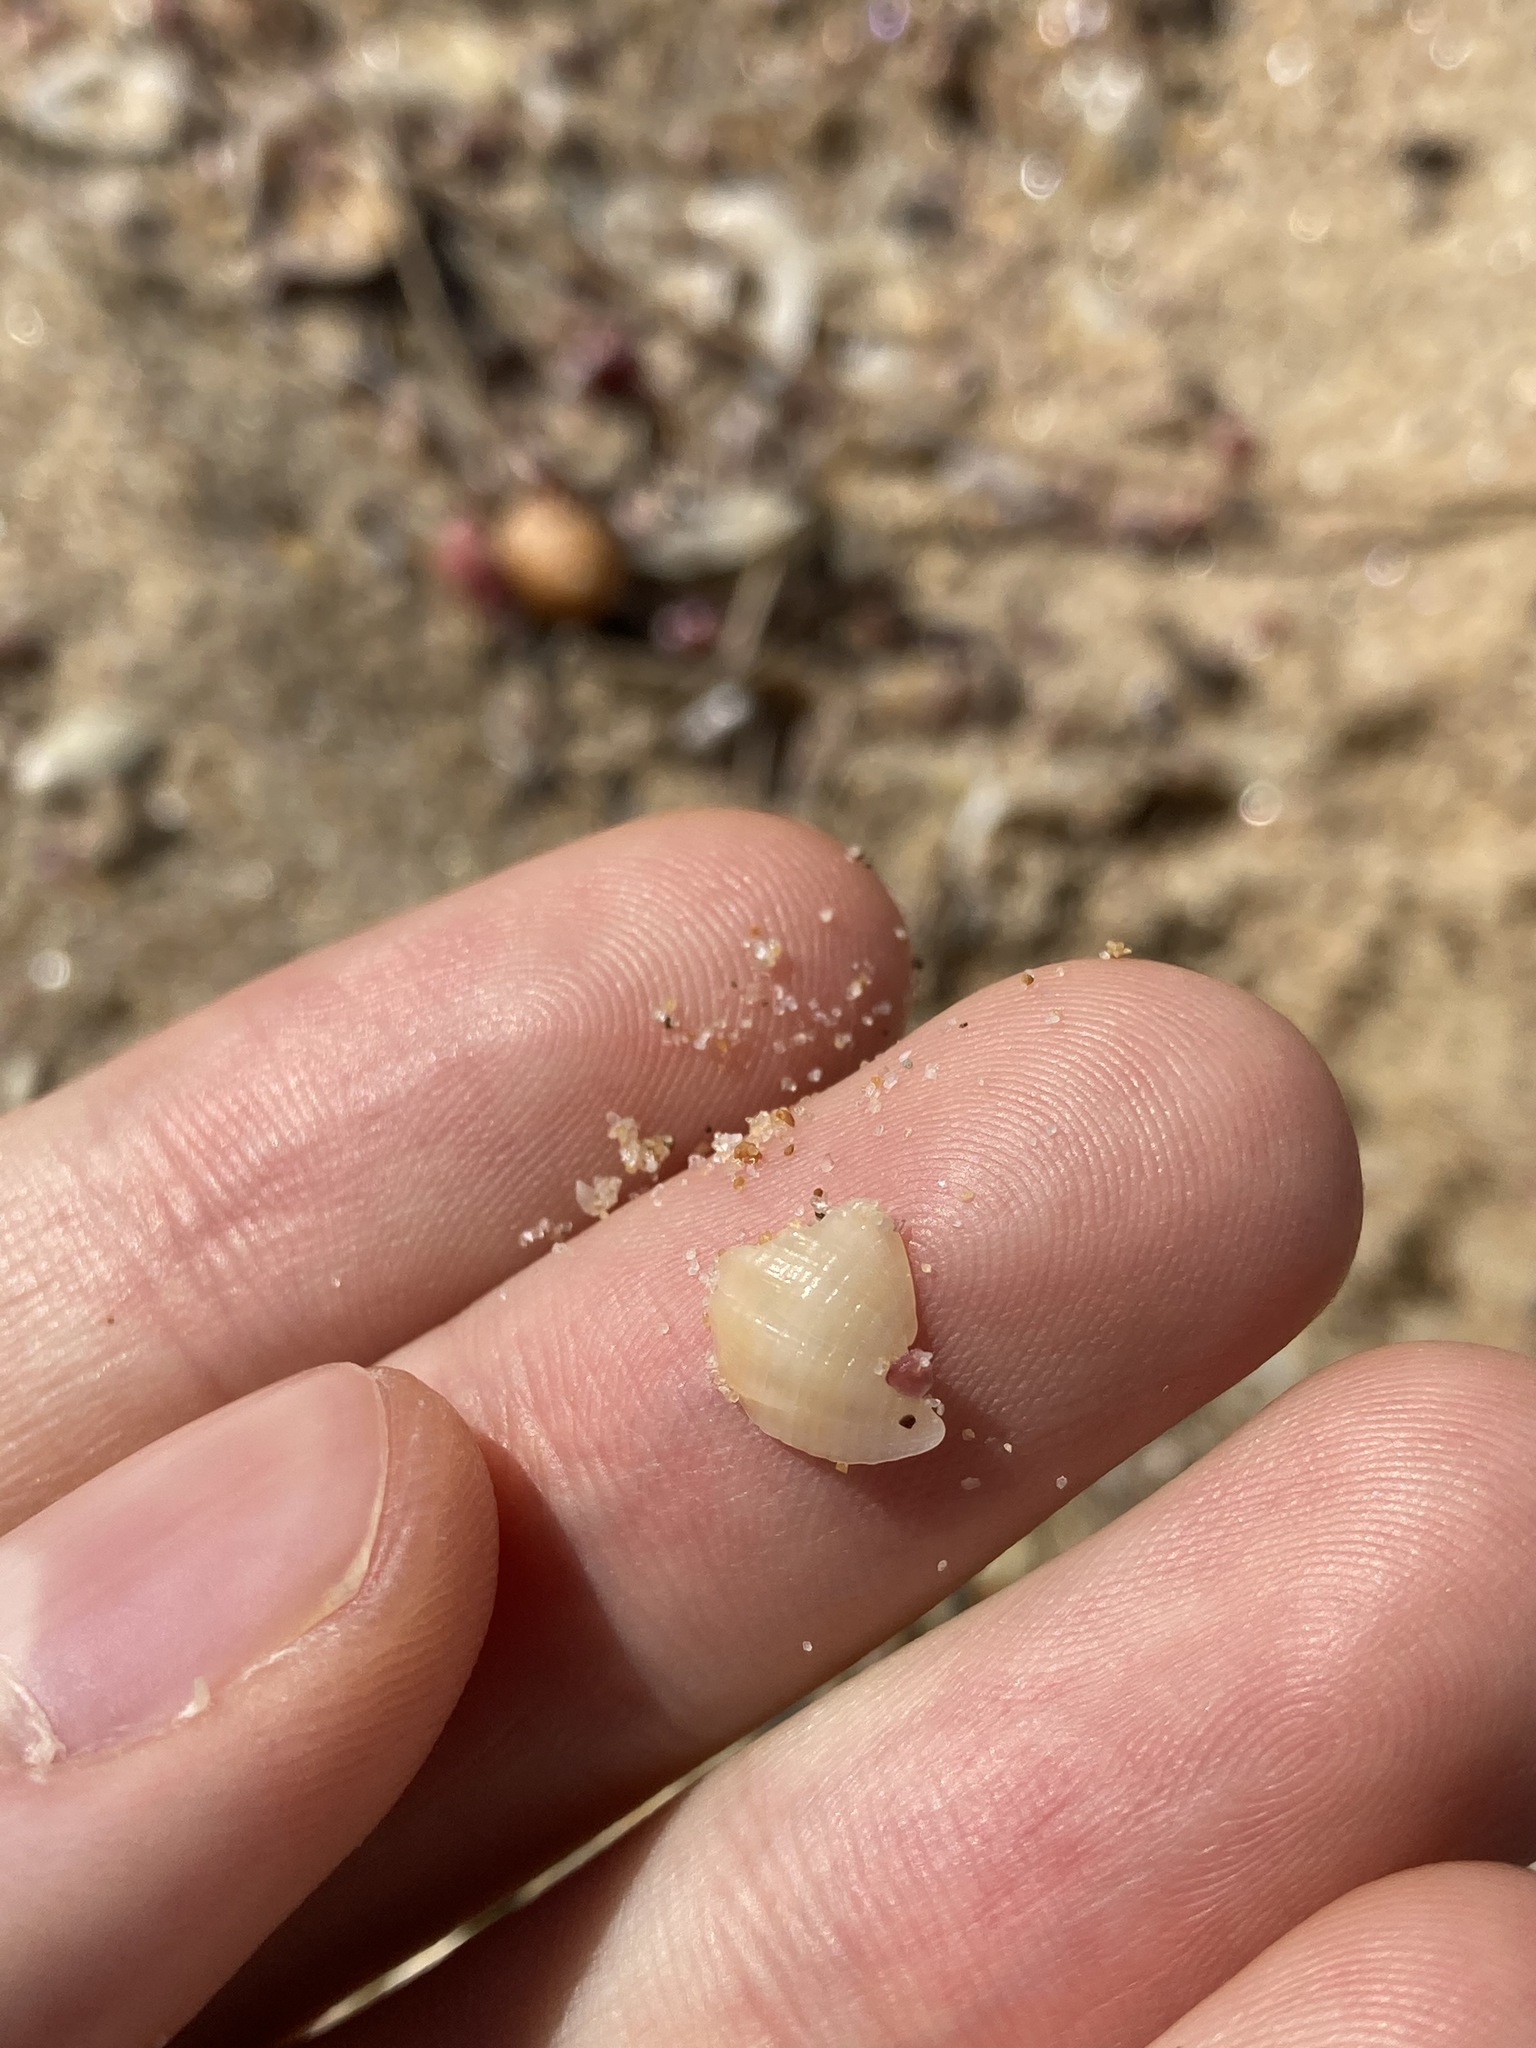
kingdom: Animalia
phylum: Mollusca
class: Gastropoda
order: Neogastropoda
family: Cancellariidae
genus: Merica
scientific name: Merica undulata
